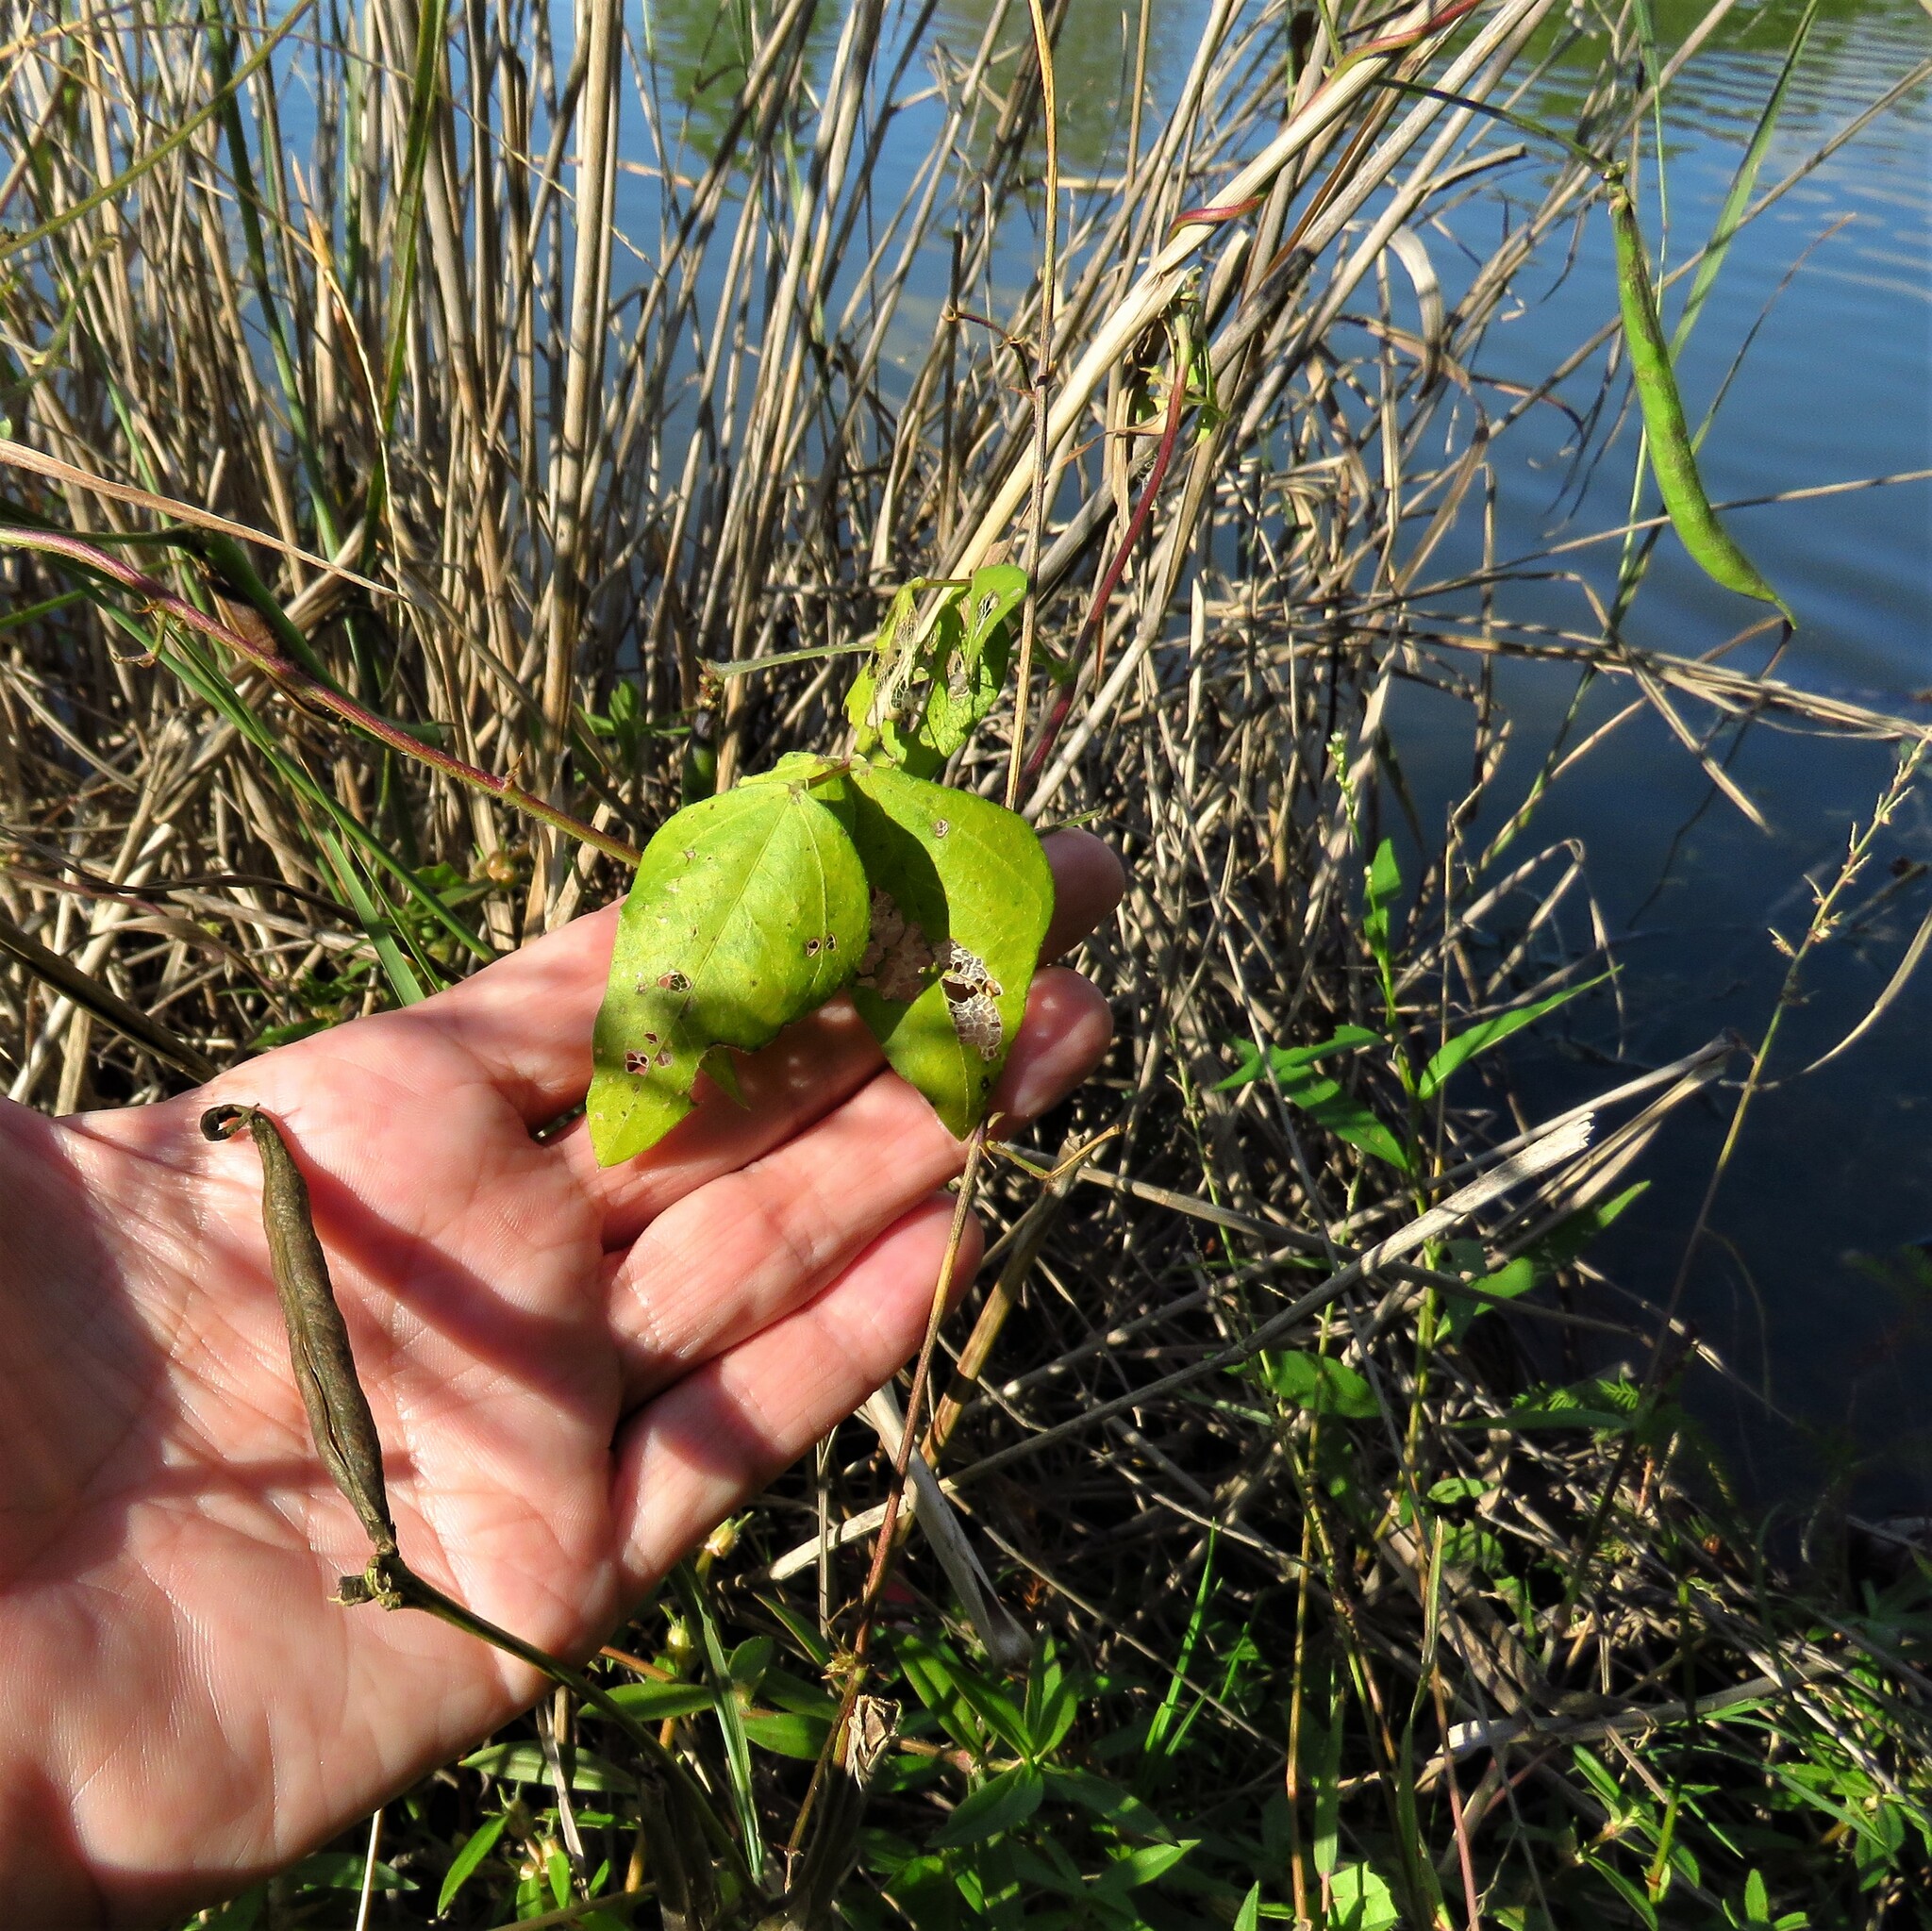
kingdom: Plantae
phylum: Tracheophyta
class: Magnoliopsida
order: Fabales
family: Fabaceae
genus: Strophostyles
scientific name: Strophostyles helvola
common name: Trailing wild bean
